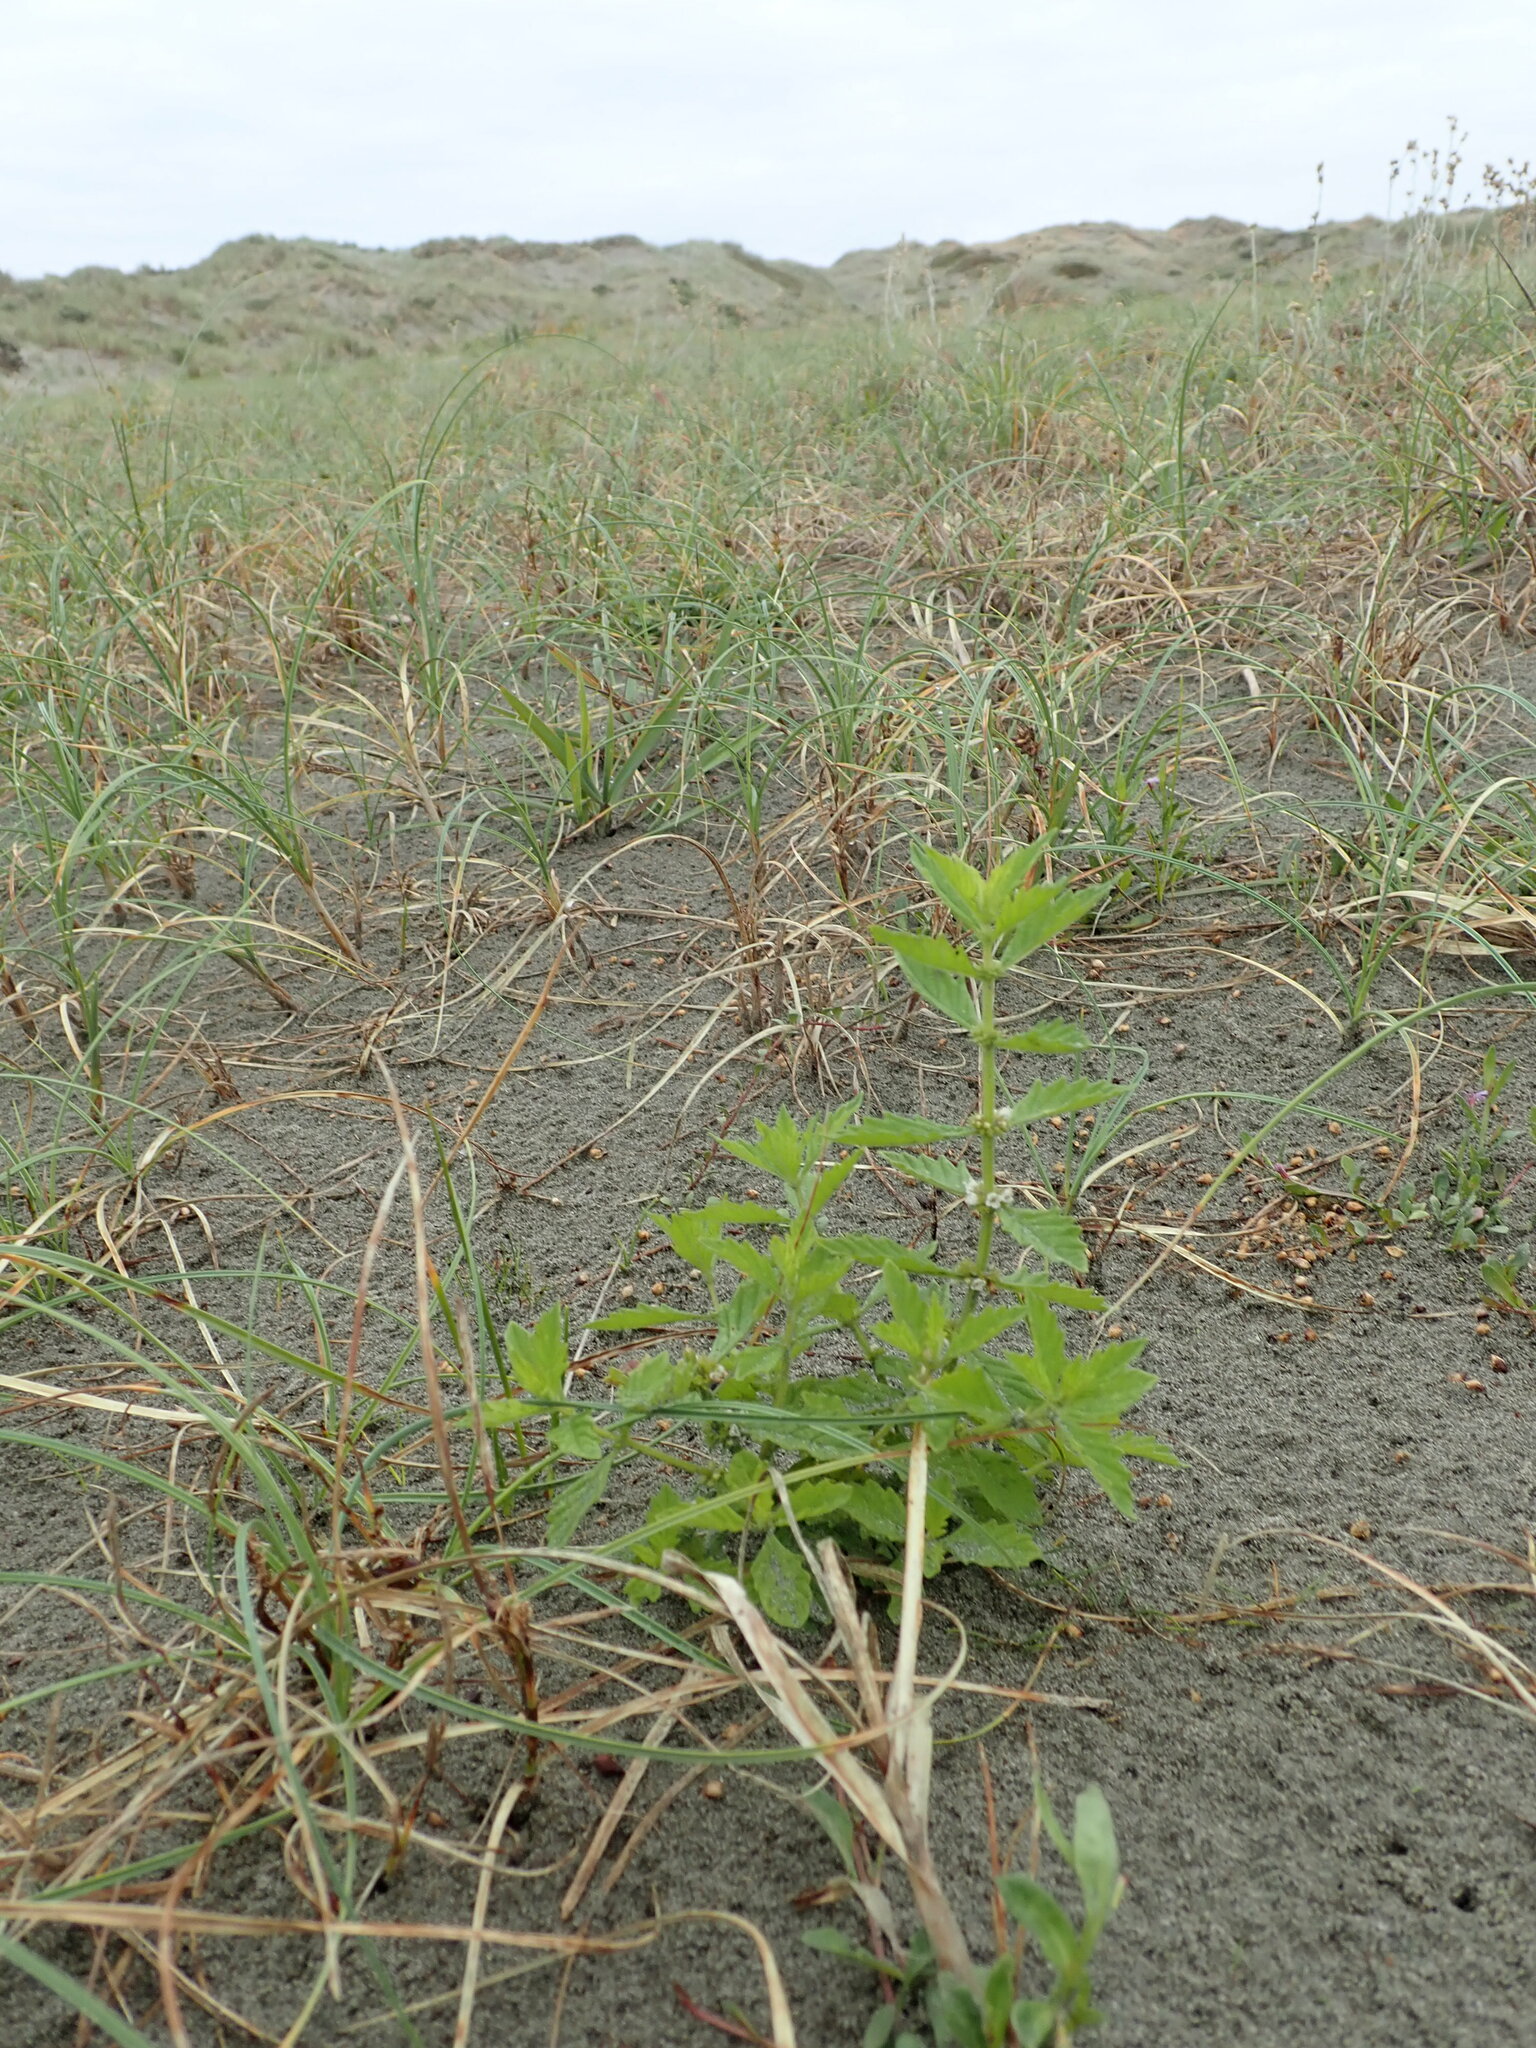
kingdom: Plantae
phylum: Tracheophyta
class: Magnoliopsida
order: Lamiales
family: Lamiaceae
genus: Lycopus
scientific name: Lycopus europaeus
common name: European bugleweed
